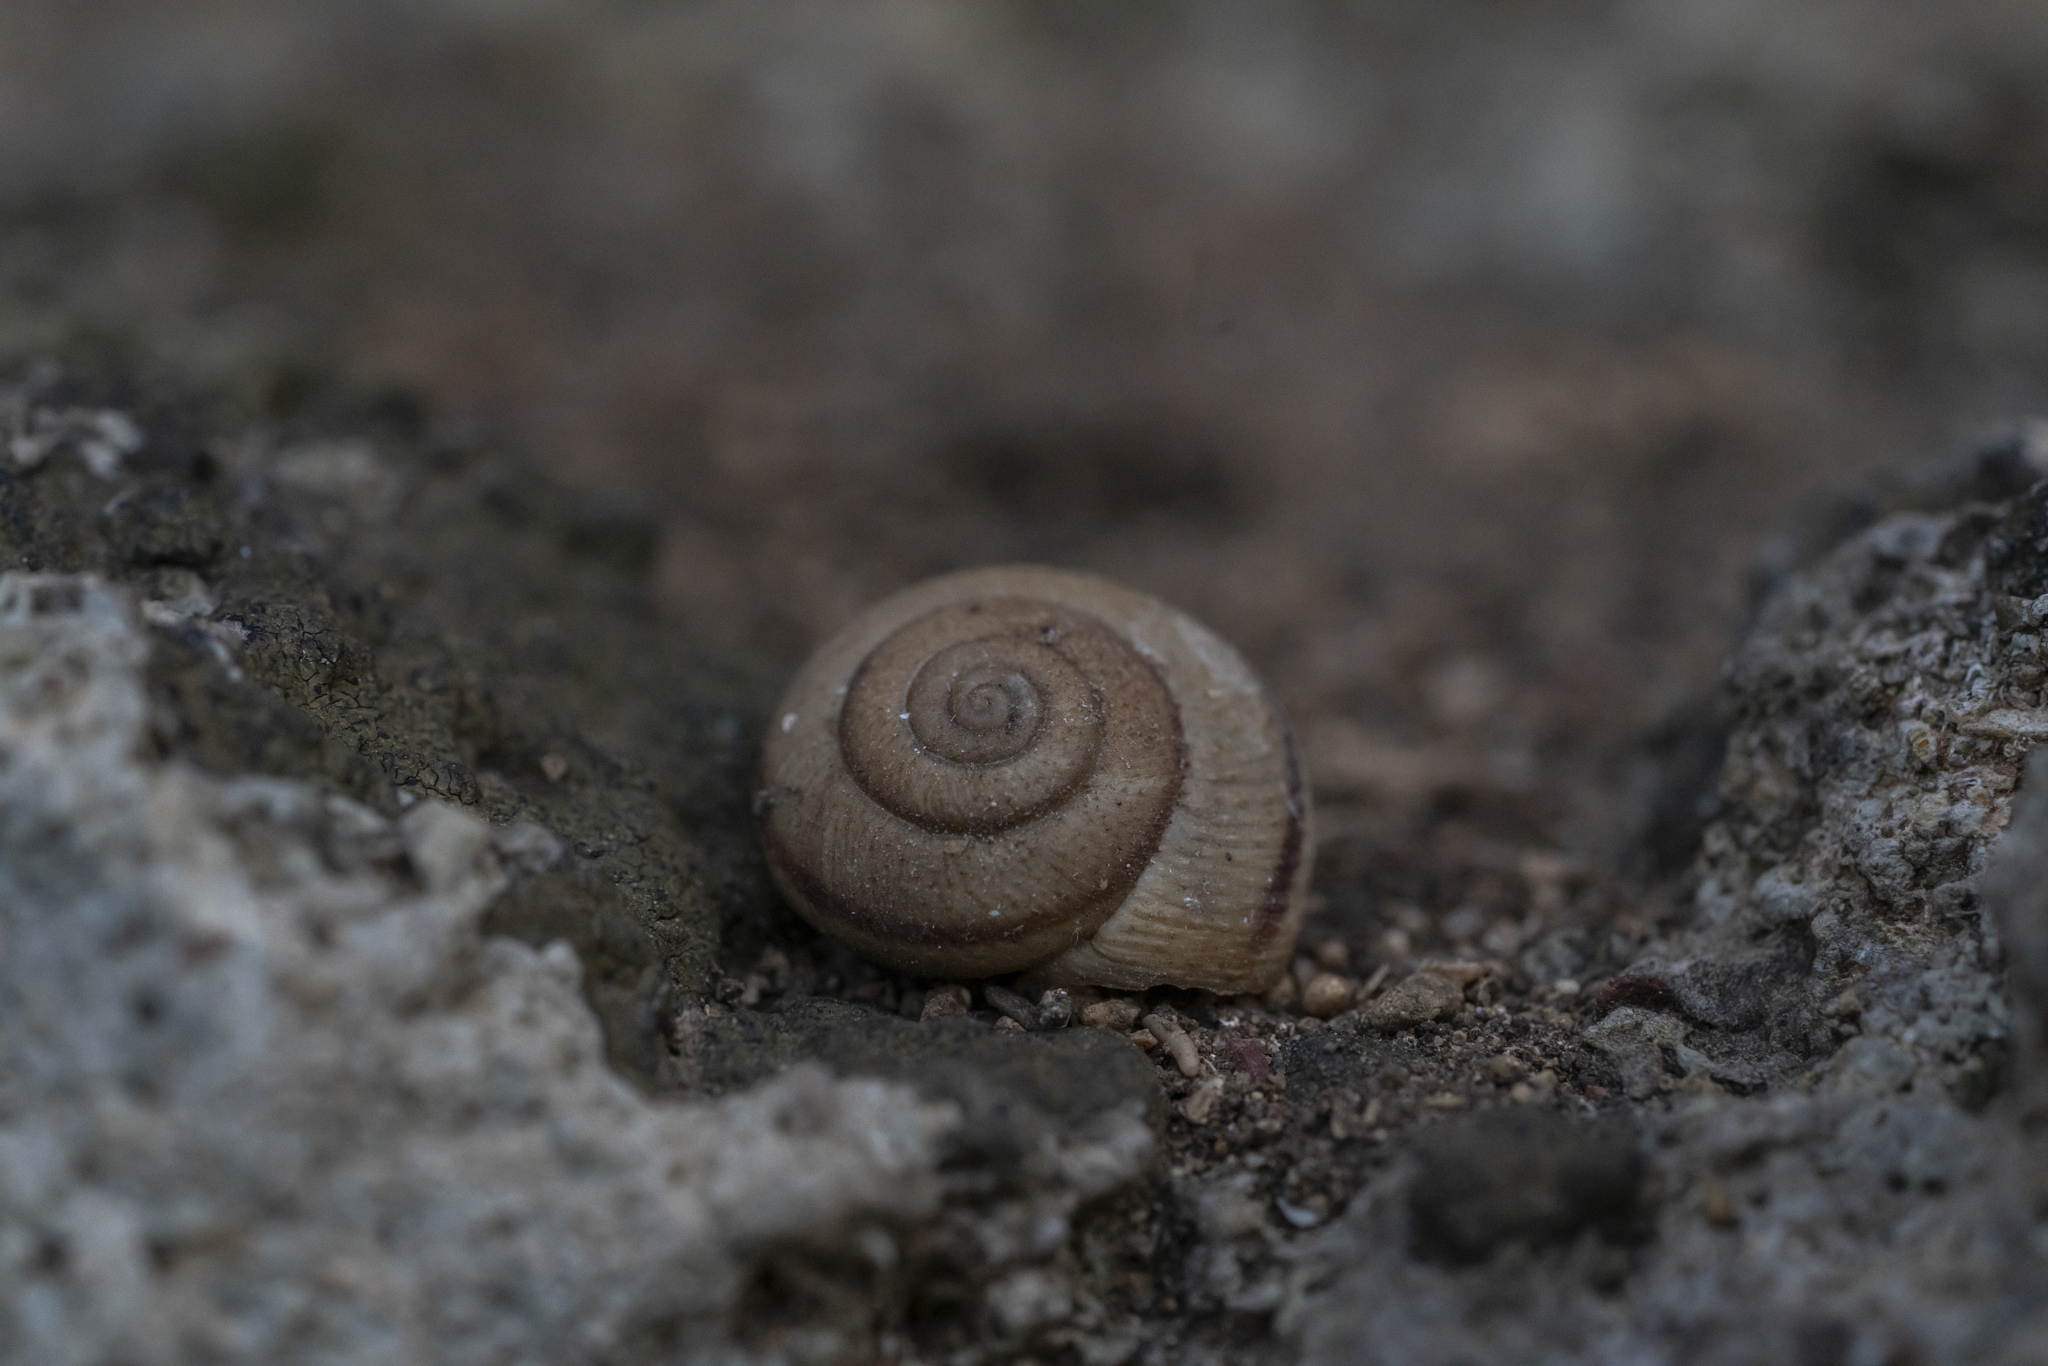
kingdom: Animalia
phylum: Mollusca
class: Gastropoda
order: Stylommatophora
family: Hygromiidae
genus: Metafruticicola
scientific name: Metafruticicola pellita
